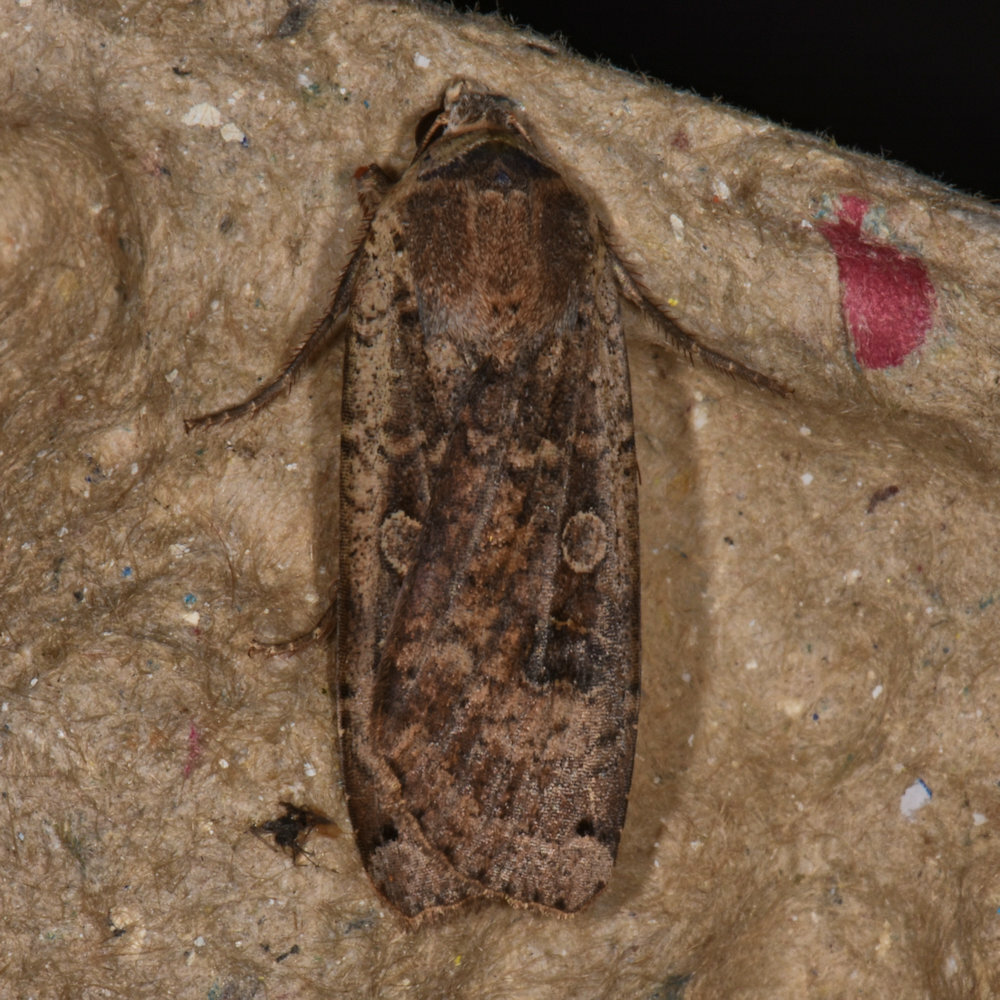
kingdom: Animalia
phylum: Arthropoda
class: Insecta
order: Lepidoptera
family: Noctuidae
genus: Noctua
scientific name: Noctua pronuba
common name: Large yellow underwing
